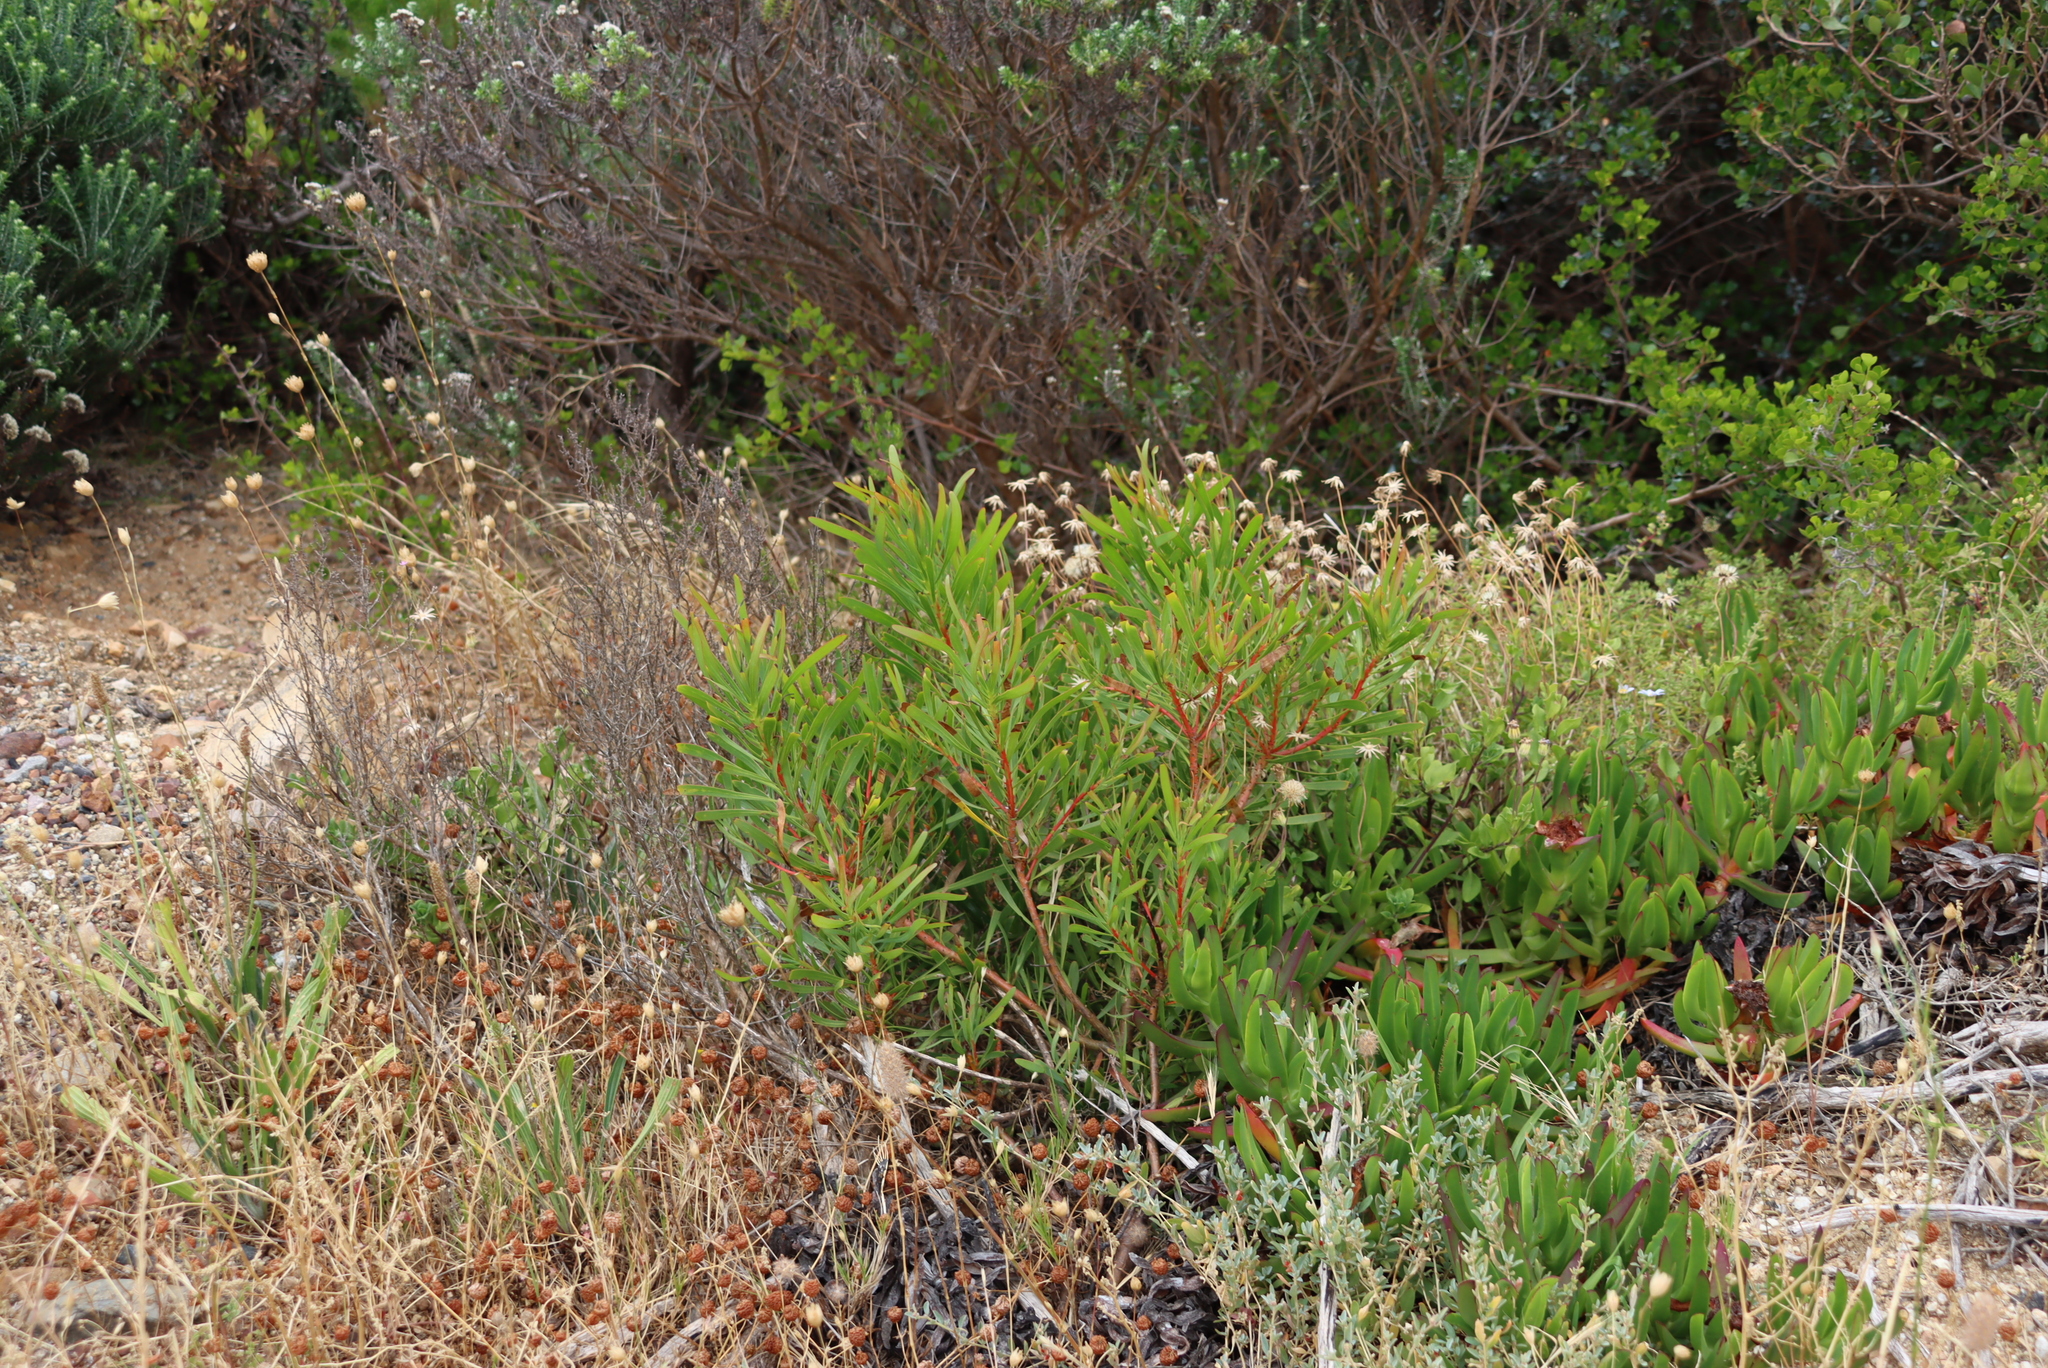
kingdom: Plantae
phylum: Tracheophyta
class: Magnoliopsida
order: Proteales
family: Proteaceae
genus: Protea
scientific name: Protea repens
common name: Sugarbush
